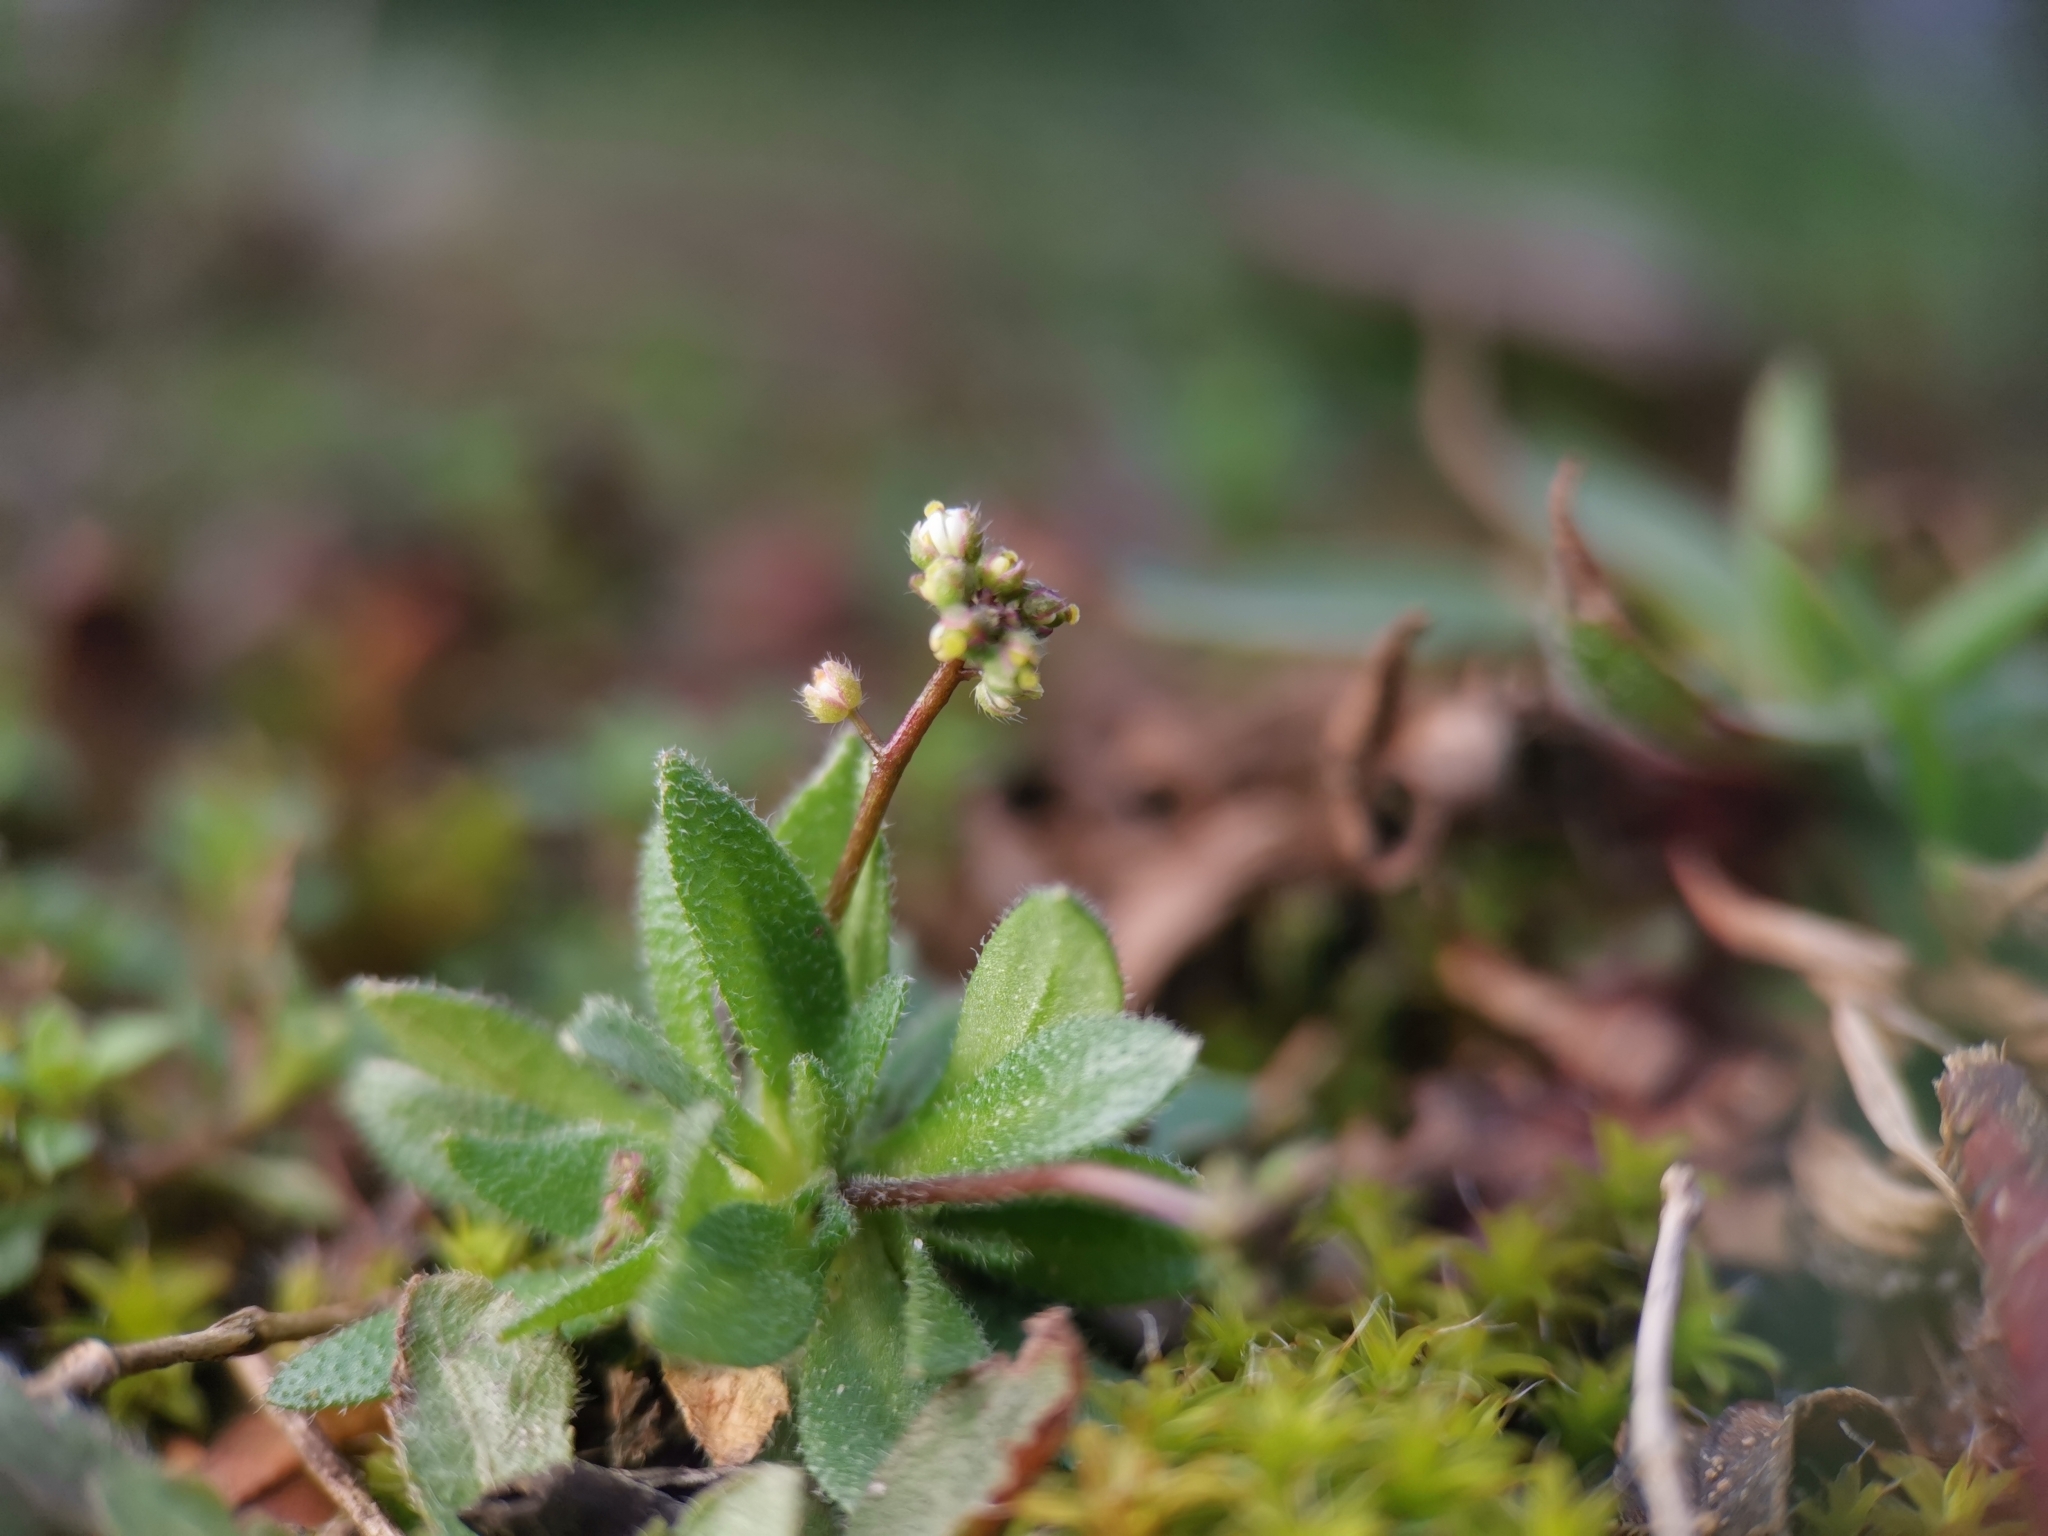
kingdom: Plantae
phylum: Tracheophyta
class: Magnoliopsida
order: Brassicales
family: Brassicaceae
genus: Draba
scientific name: Draba verna
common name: Spring draba
